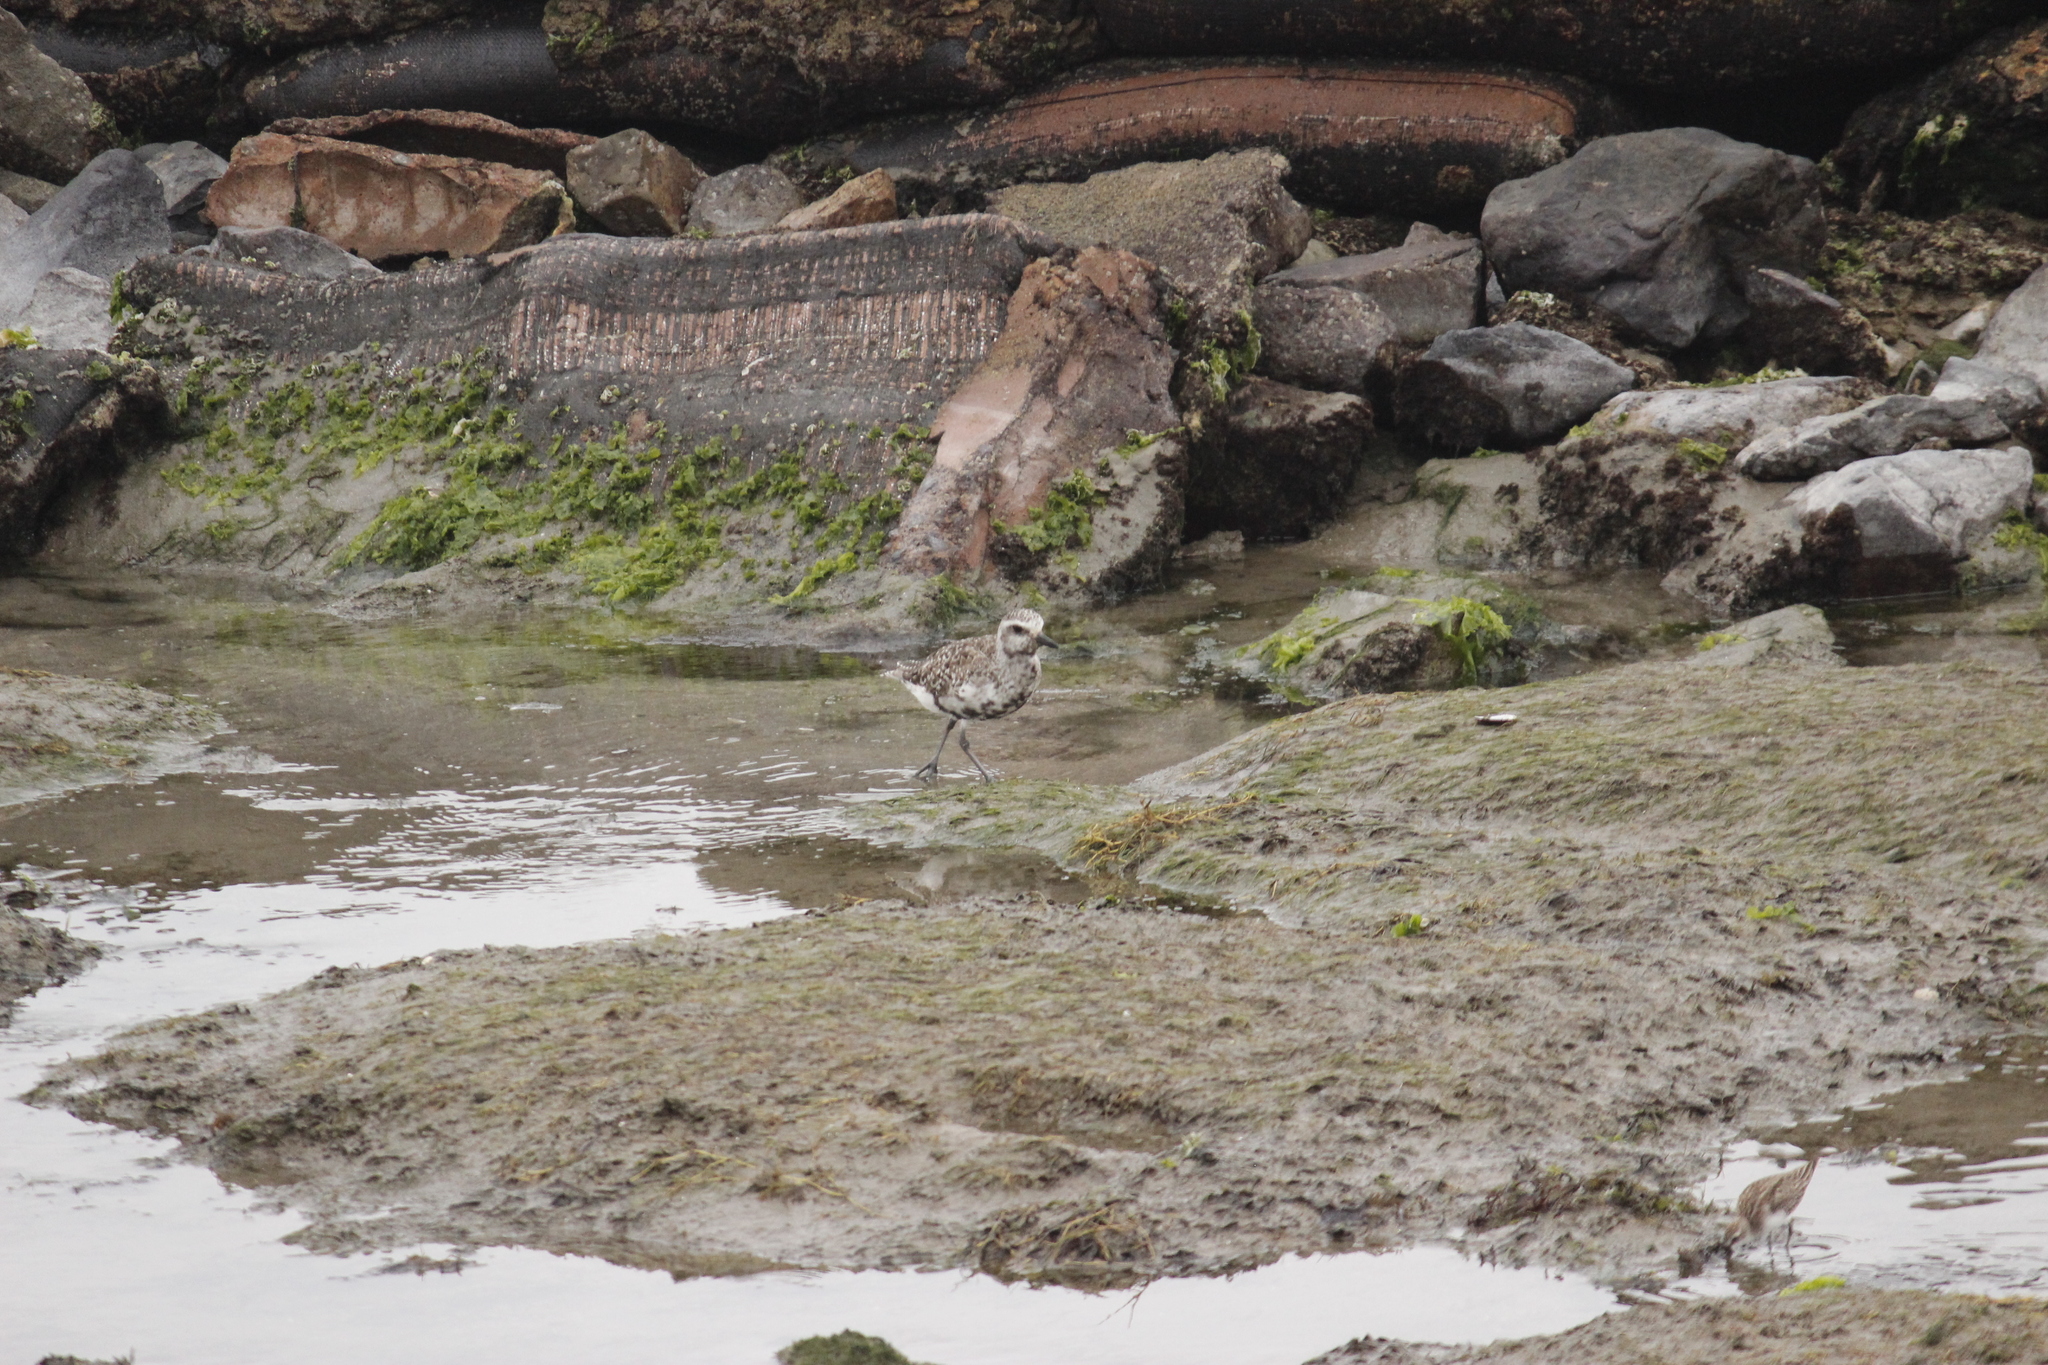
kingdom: Animalia
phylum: Chordata
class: Aves
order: Charadriiformes
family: Charadriidae
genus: Pluvialis
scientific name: Pluvialis squatarola
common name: Grey plover
